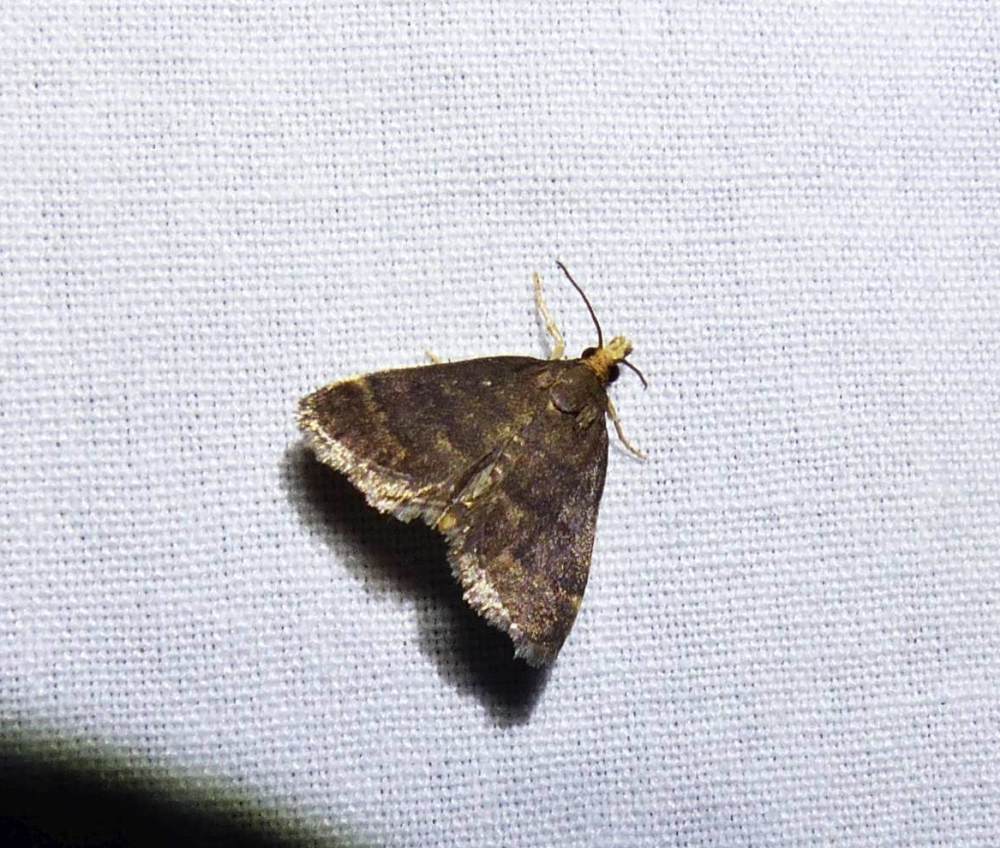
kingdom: Animalia
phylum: Arthropoda
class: Insecta
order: Lepidoptera
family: Crambidae
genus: Pyrausta
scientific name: Pyrausta merrickalis
